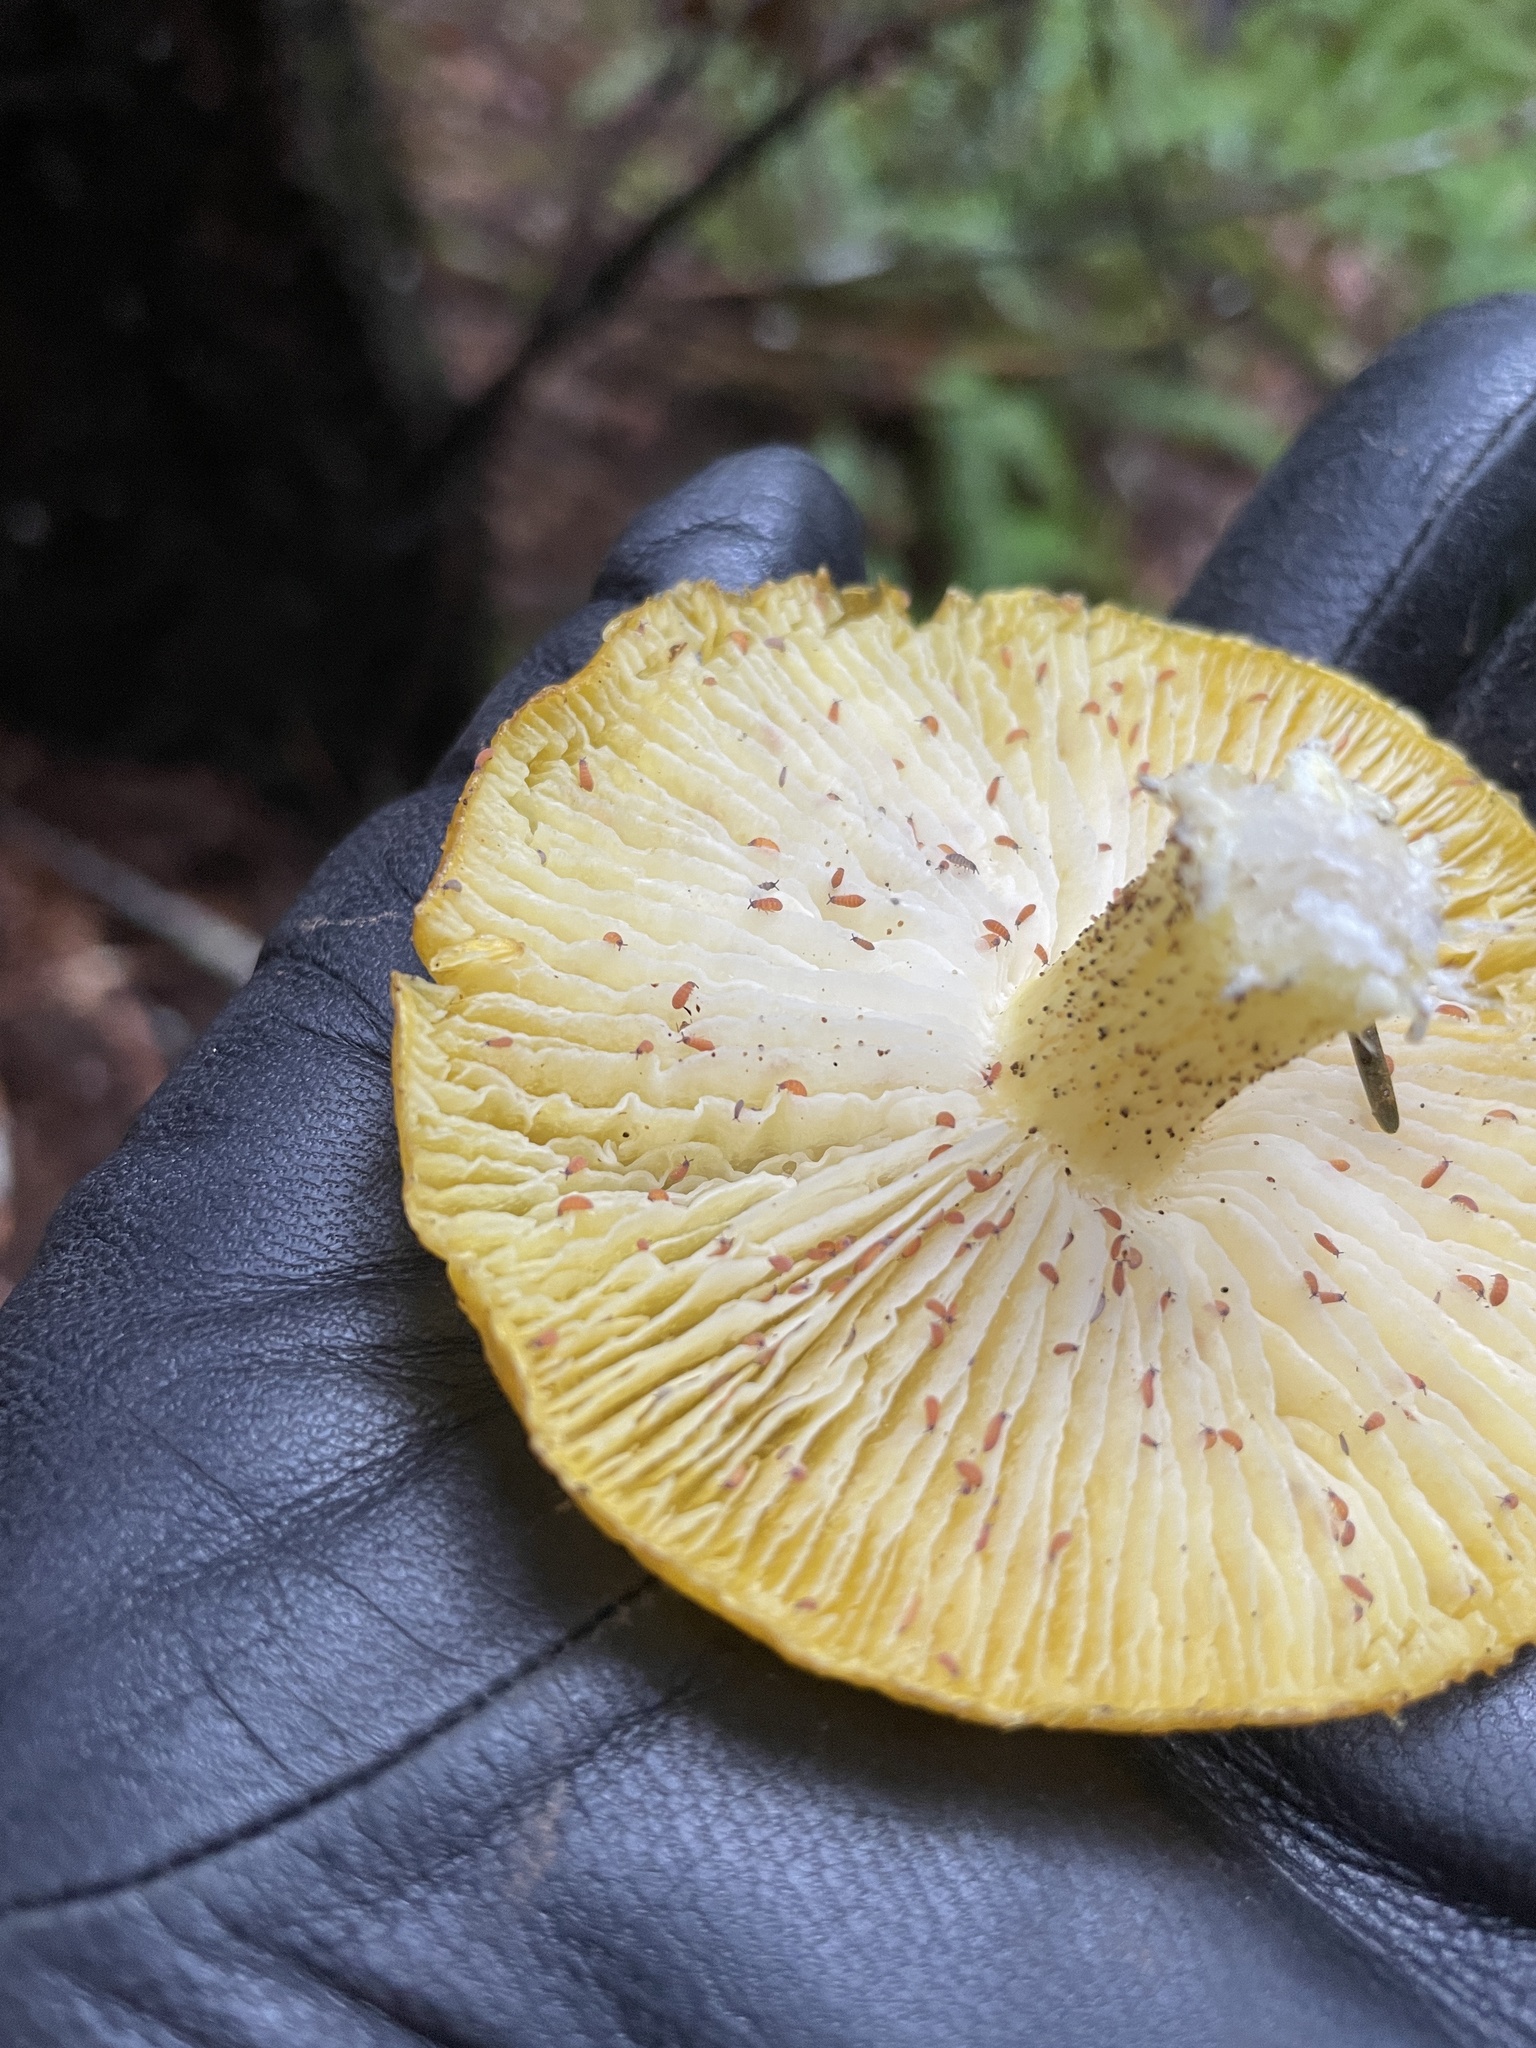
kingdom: Fungi
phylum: Basidiomycota
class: Agaricomycetes
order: Agaricales
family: Agaricaceae
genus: Floccularia
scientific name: Floccularia albolanaripes
